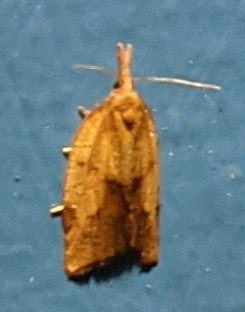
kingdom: Animalia
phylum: Arthropoda
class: Insecta
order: Lepidoptera
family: Tortricidae
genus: Sparganothis
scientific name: Sparganothis xanthoides
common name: Mosaic sparganothis moth
